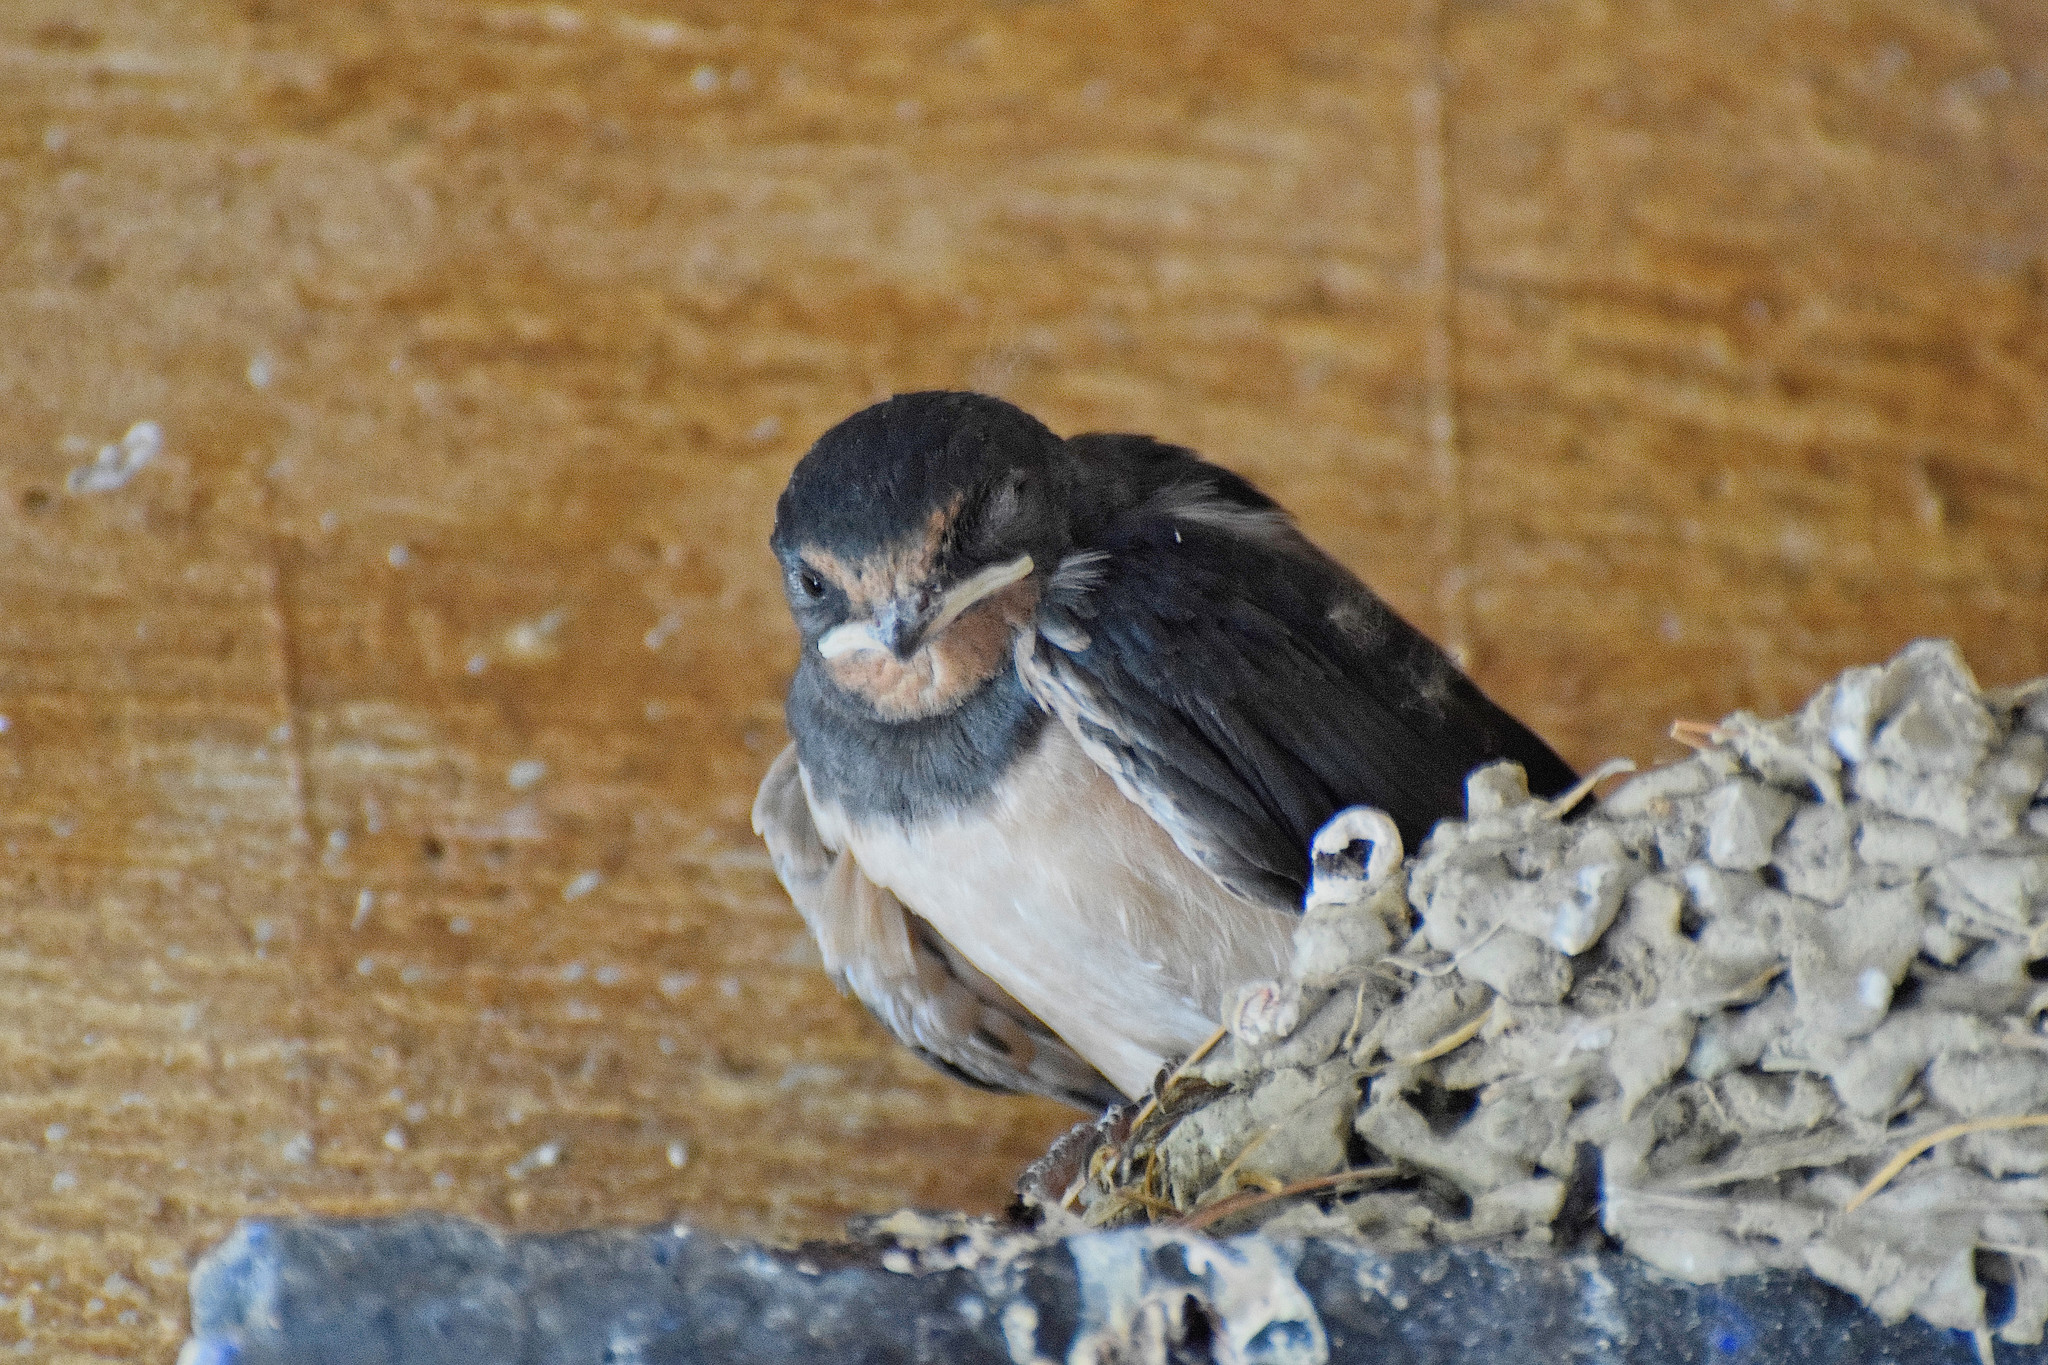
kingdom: Animalia
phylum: Chordata
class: Aves
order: Passeriformes
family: Hirundinidae
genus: Hirundo
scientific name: Hirundo rustica
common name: Barn swallow
